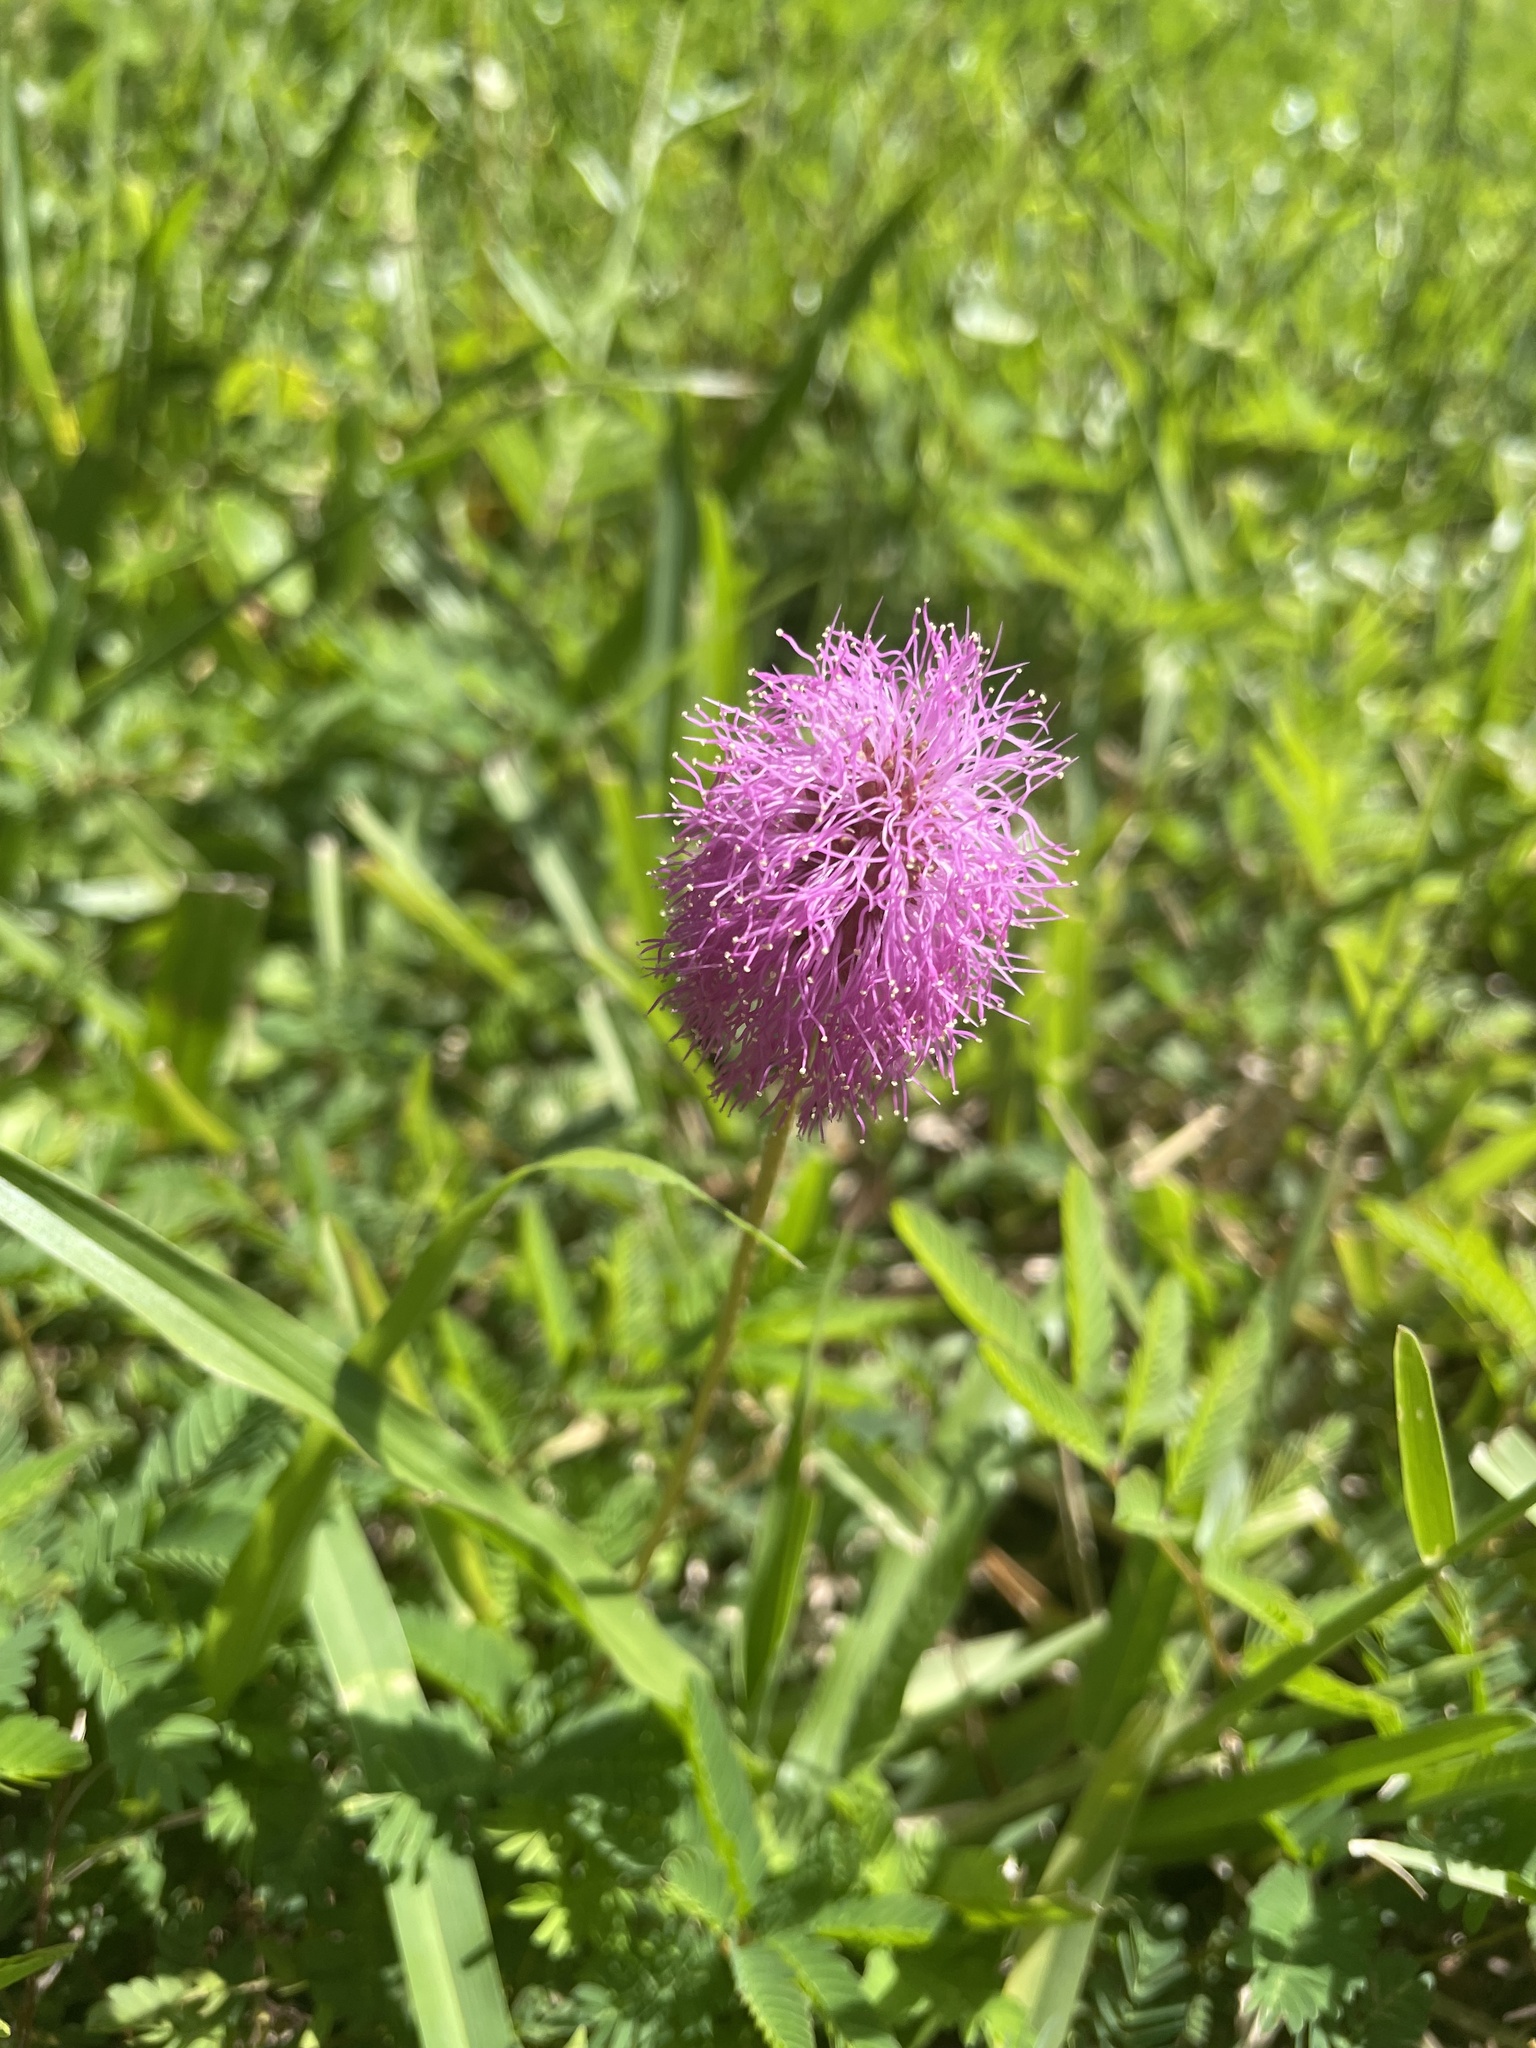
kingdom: Plantae
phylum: Tracheophyta
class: Magnoliopsida
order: Fabales
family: Fabaceae
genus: Mimosa
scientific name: Mimosa strigillosa
